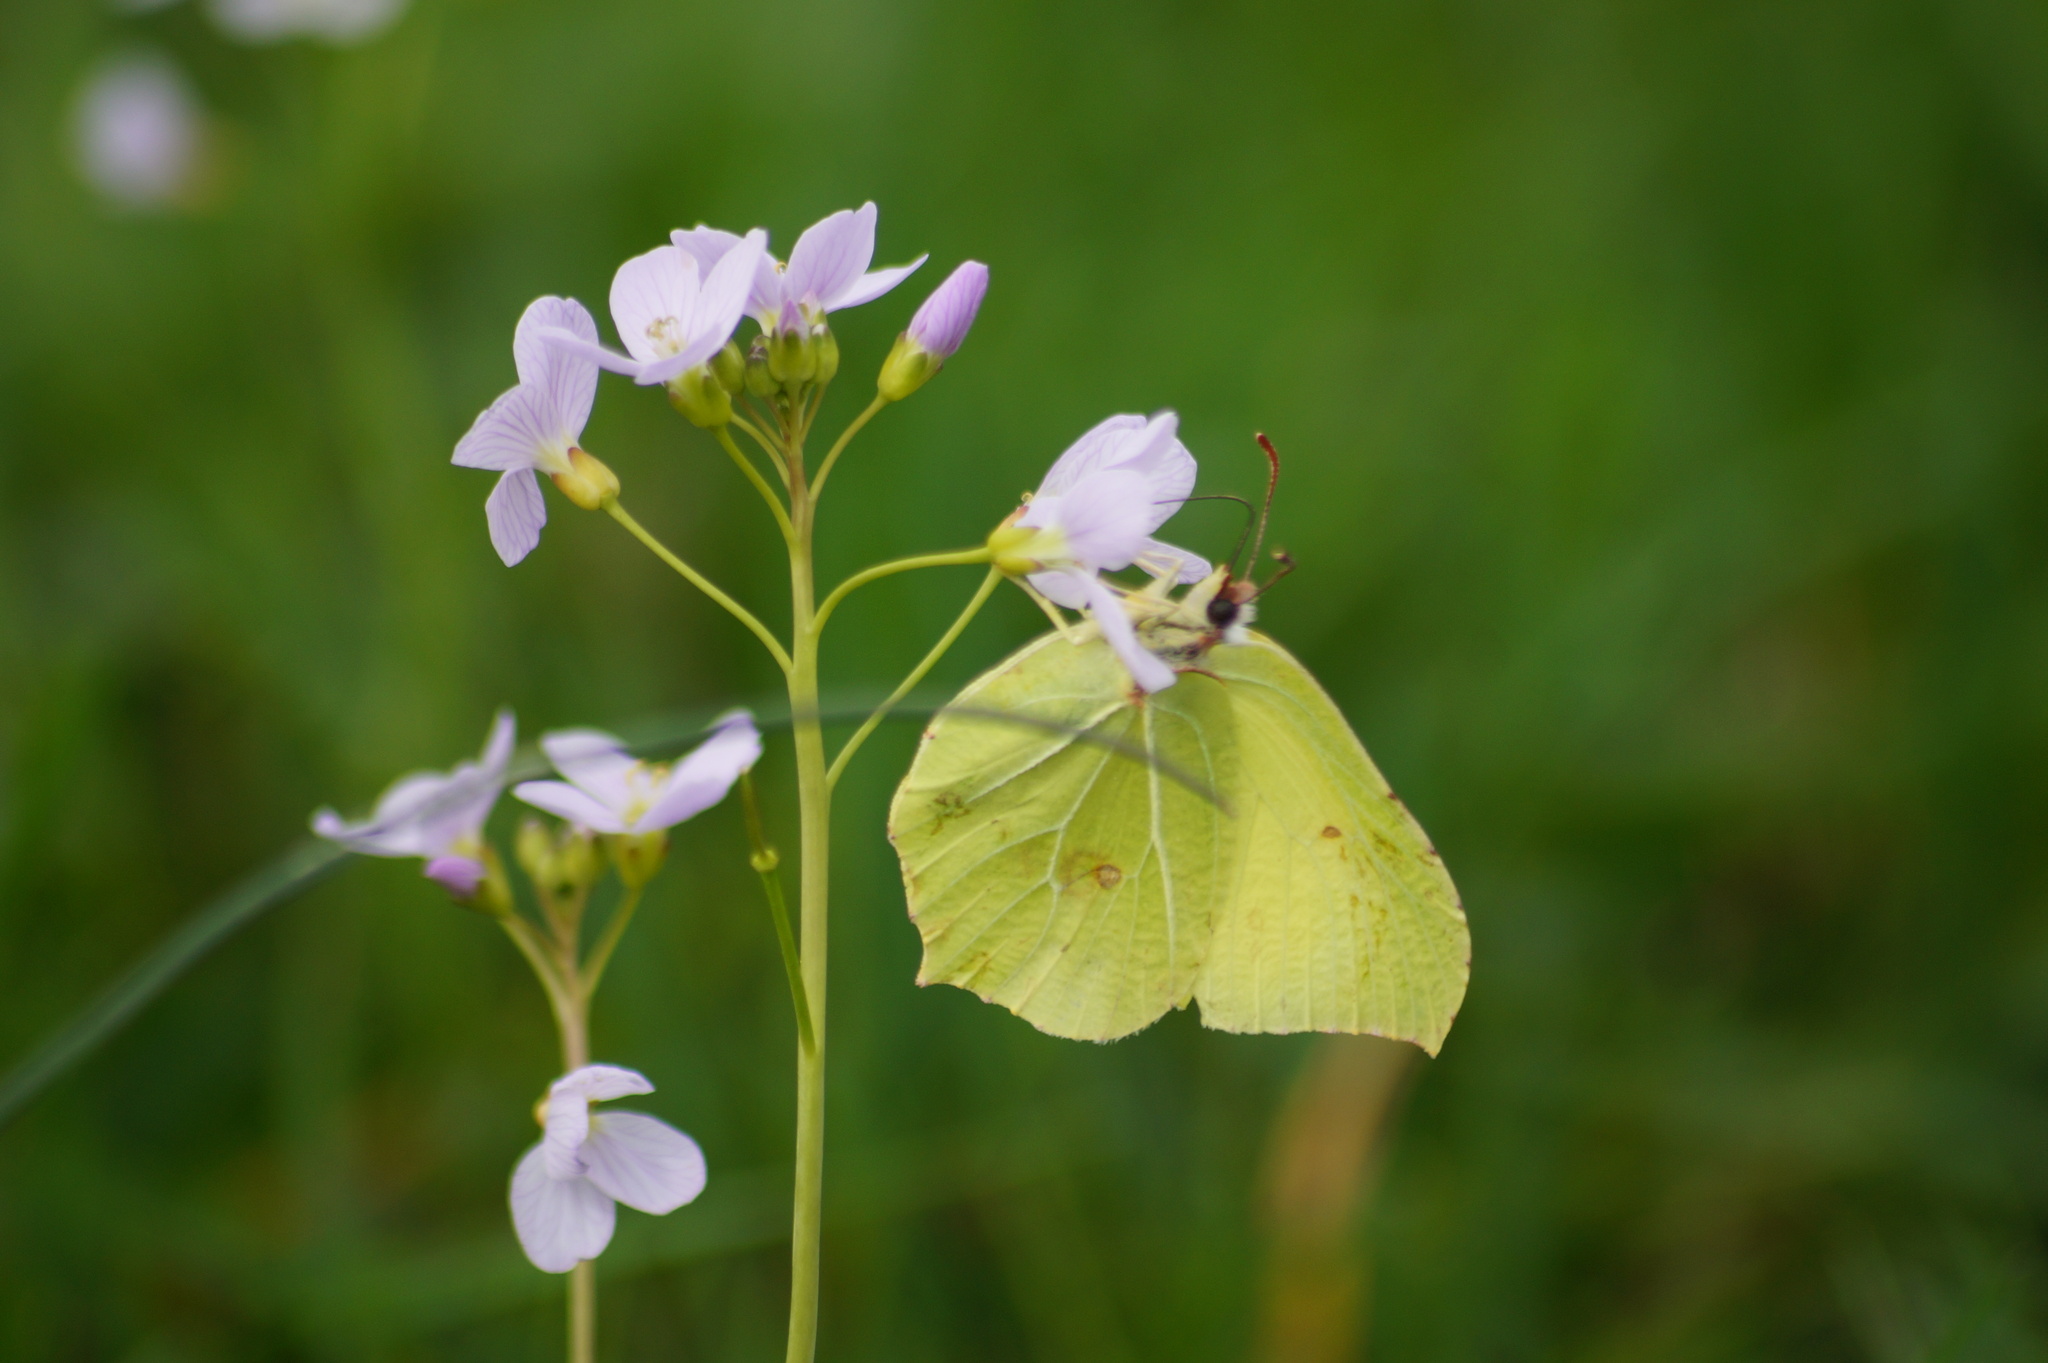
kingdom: Animalia
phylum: Arthropoda
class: Insecta
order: Lepidoptera
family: Pieridae
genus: Gonepteryx
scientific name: Gonepteryx rhamni
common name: Brimstone
